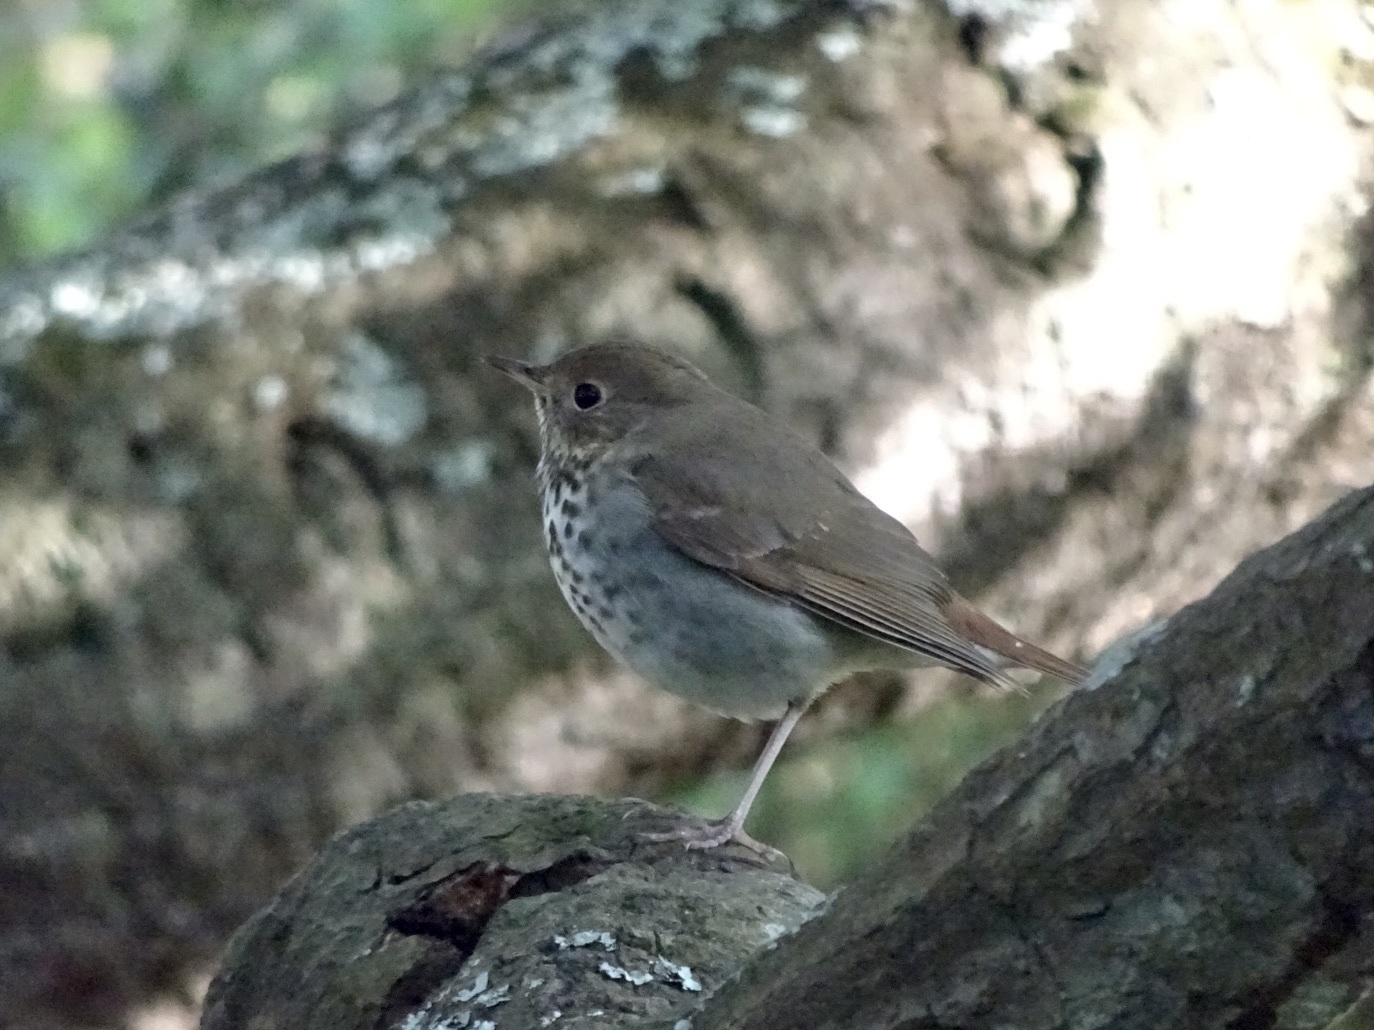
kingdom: Animalia
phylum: Chordata
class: Aves
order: Passeriformes
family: Turdidae
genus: Catharus
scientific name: Catharus guttatus
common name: Hermit thrush
